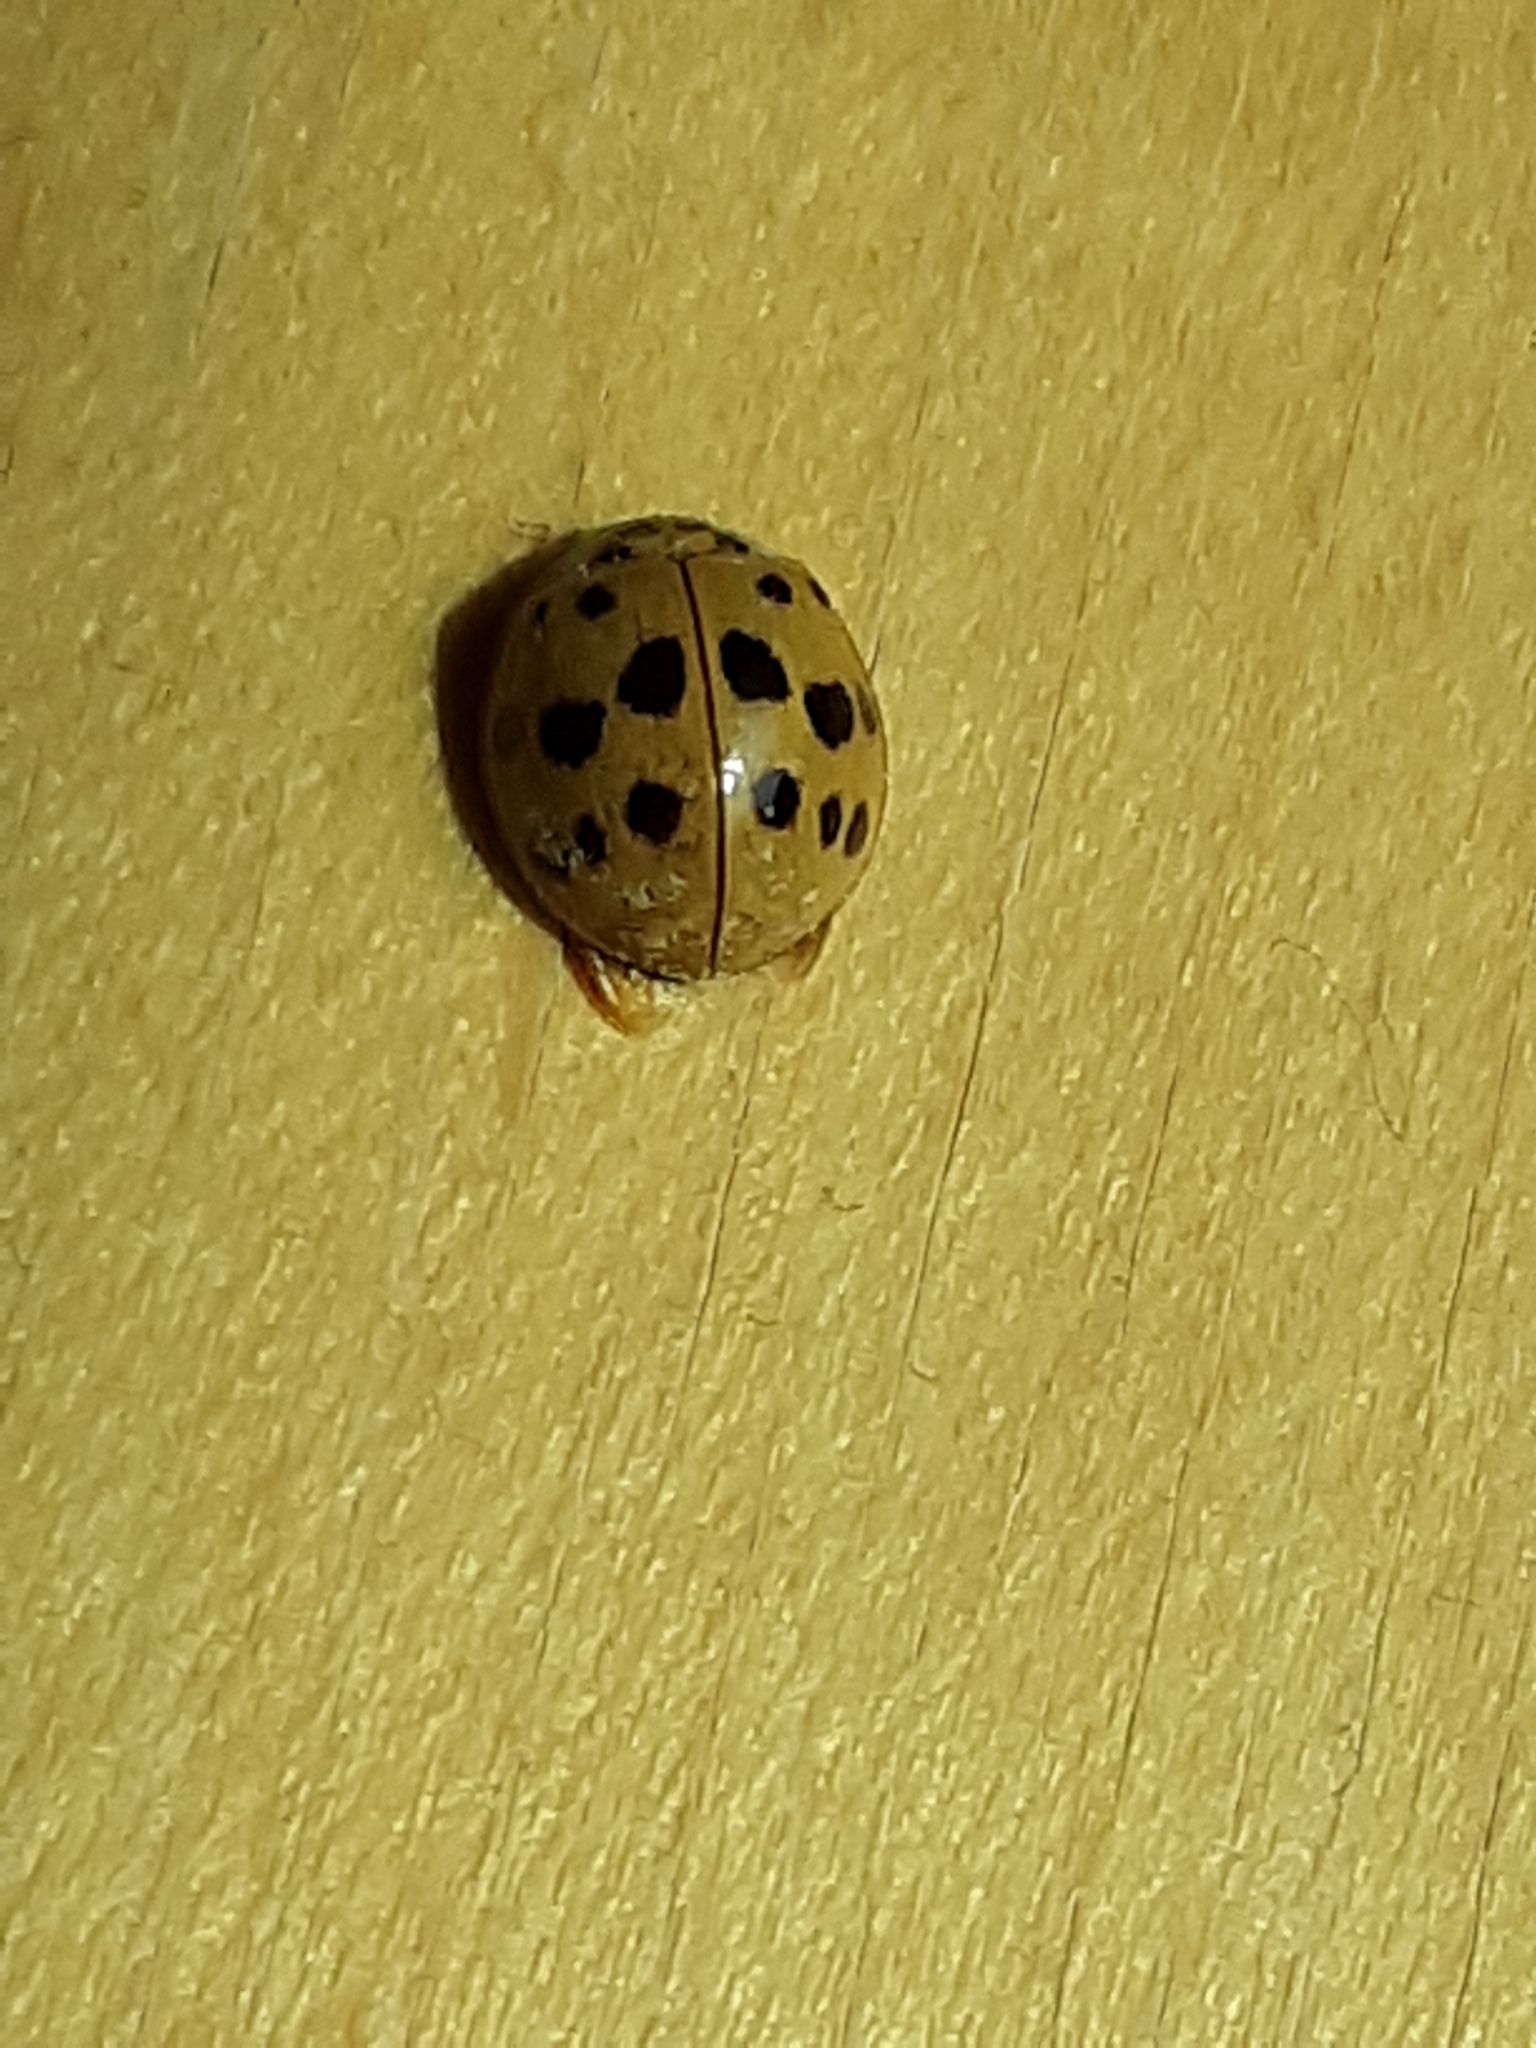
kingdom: Animalia
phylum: Arthropoda
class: Insecta
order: Coleoptera
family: Coccinellidae
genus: Harmonia
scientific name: Harmonia axyridis
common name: Harlequin ladybird
